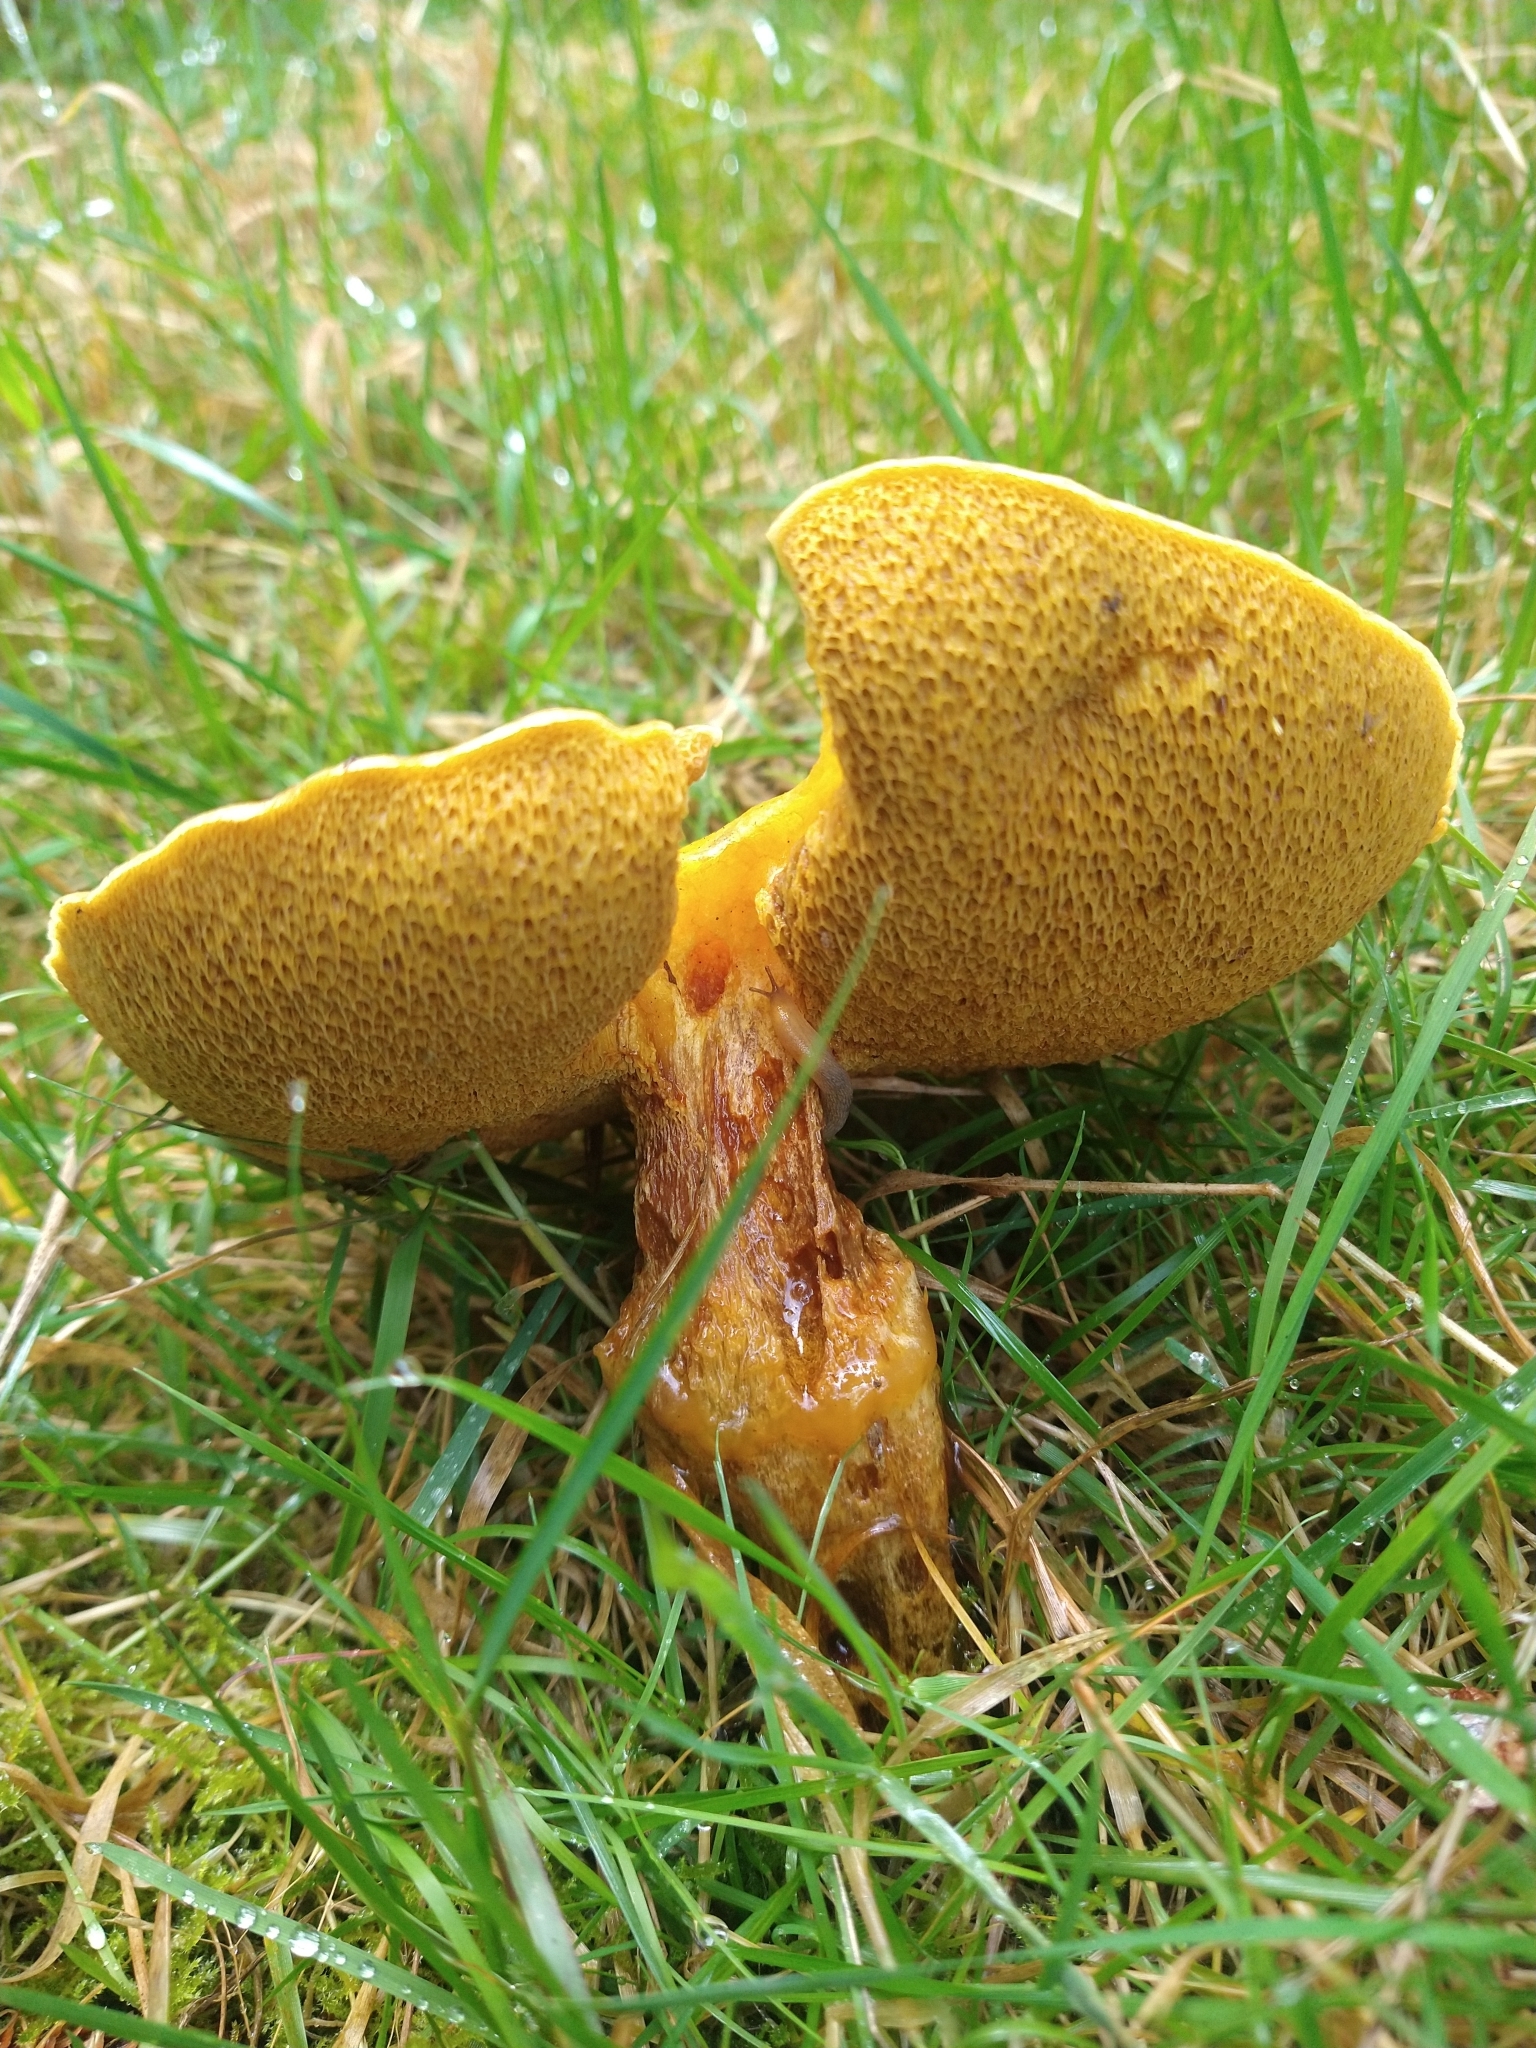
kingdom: Fungi
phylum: Basidiomycota
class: Agaricomycetes
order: Boletales
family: Suillaceae
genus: Suillus
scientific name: Suillus grevillei
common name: Larch bolete
